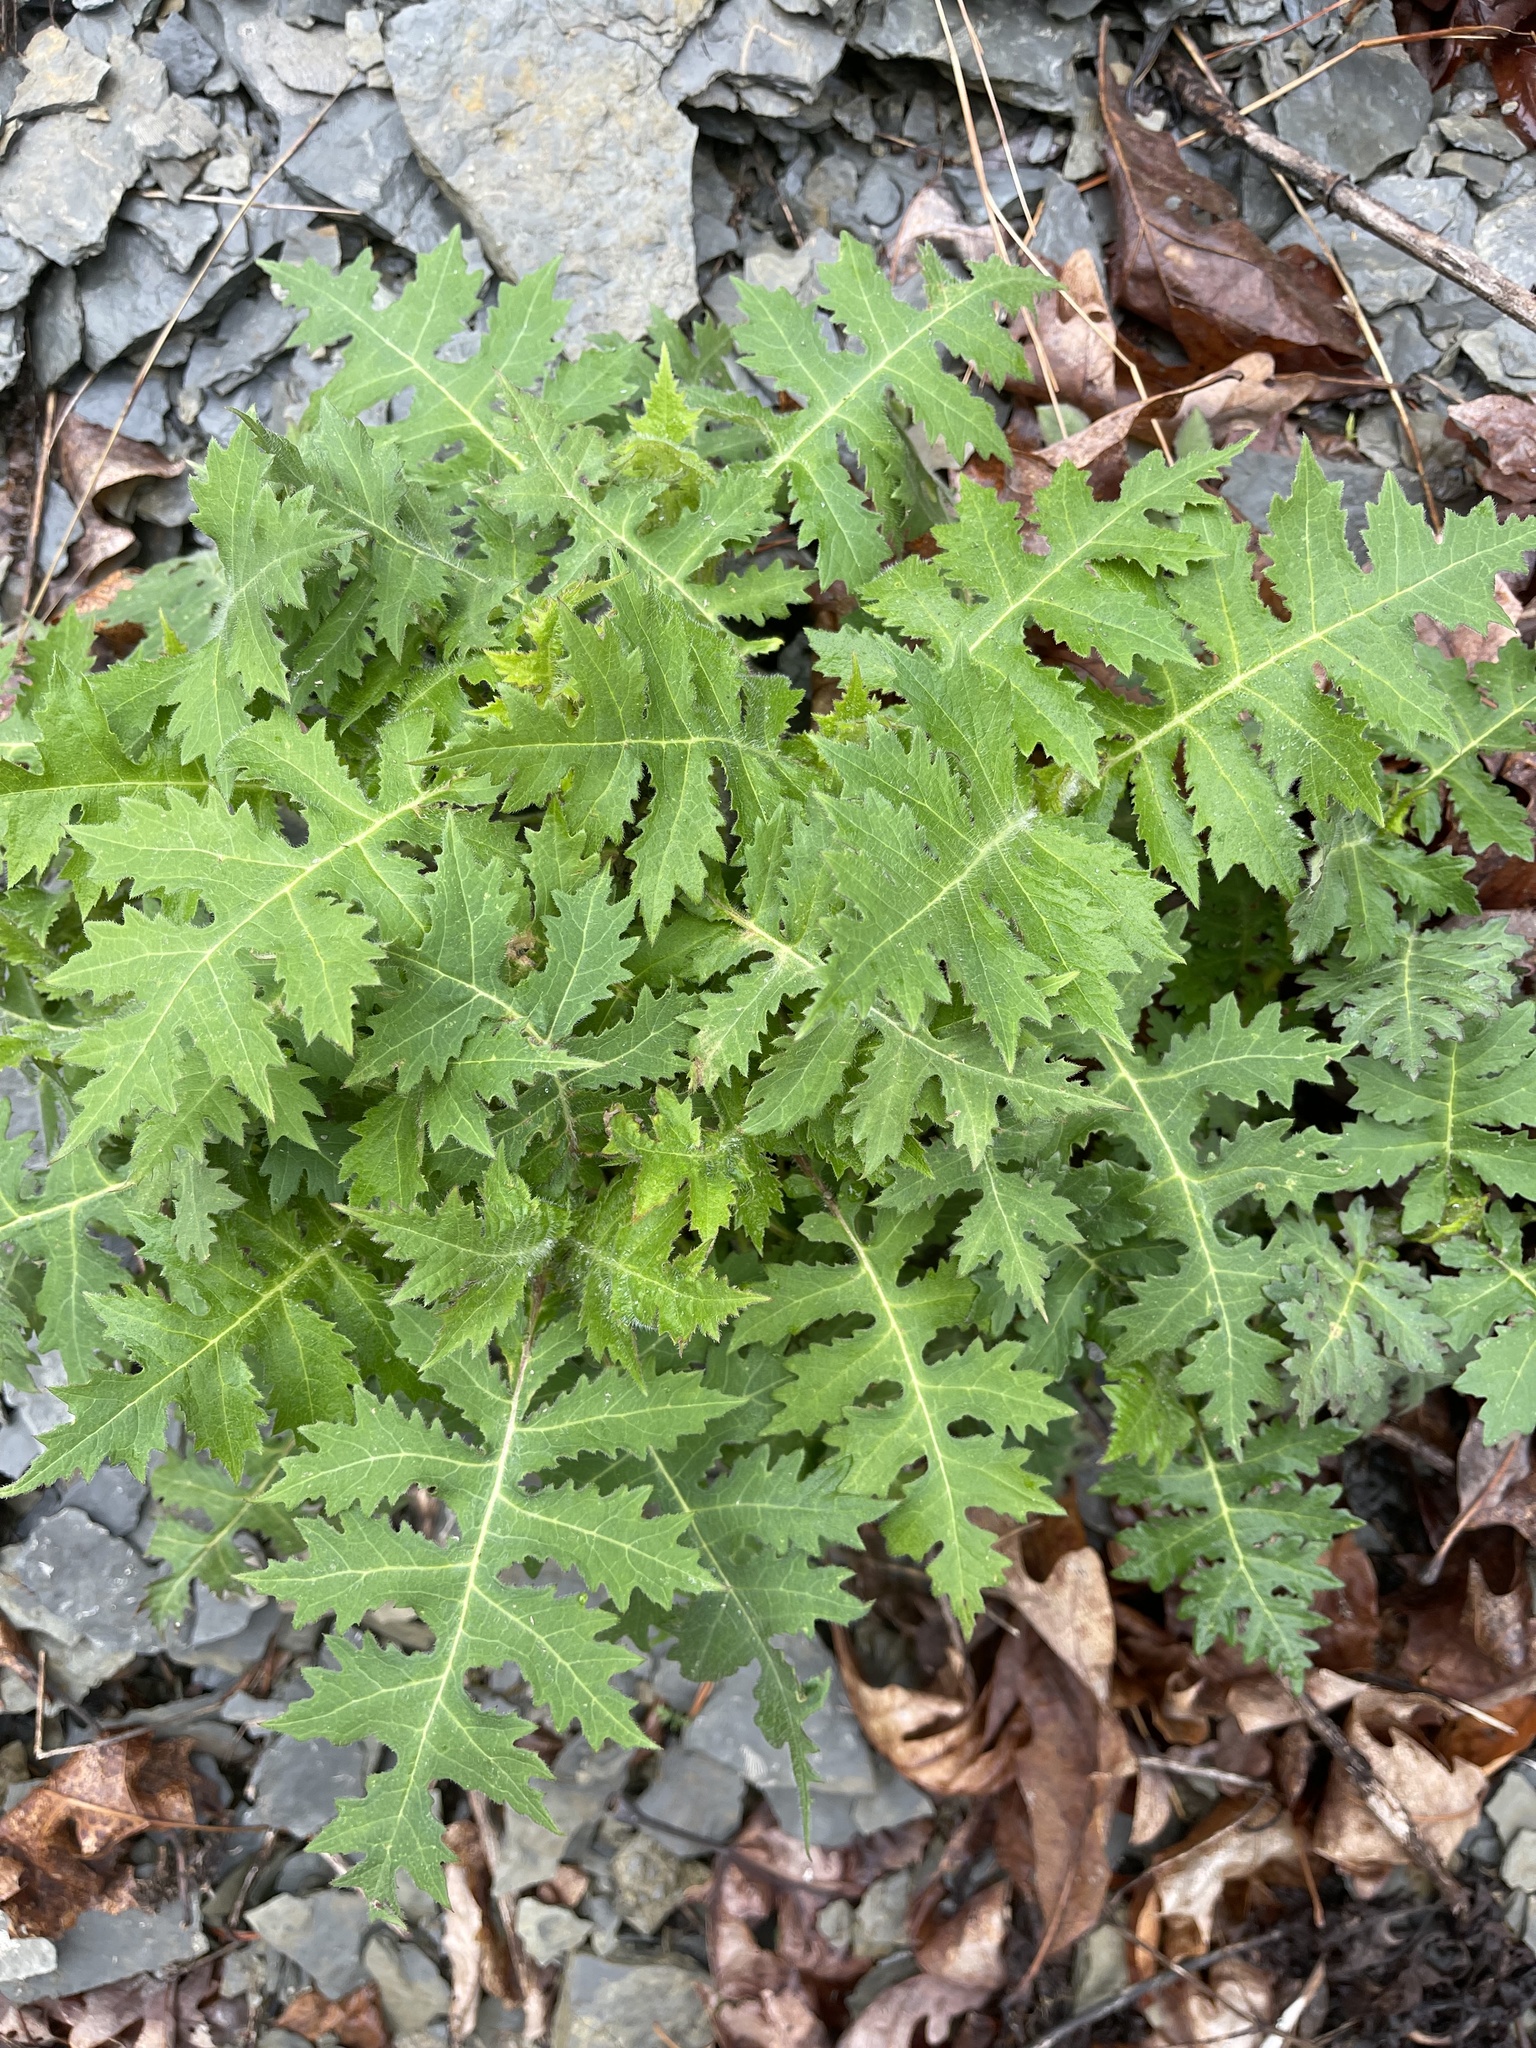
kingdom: Plantae
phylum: Tracheophyta
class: Magnoliopsida
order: Asterales
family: Asteraceae
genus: Polymnia
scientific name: Polymnia canadensis
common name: Pale-flowered leafcup
